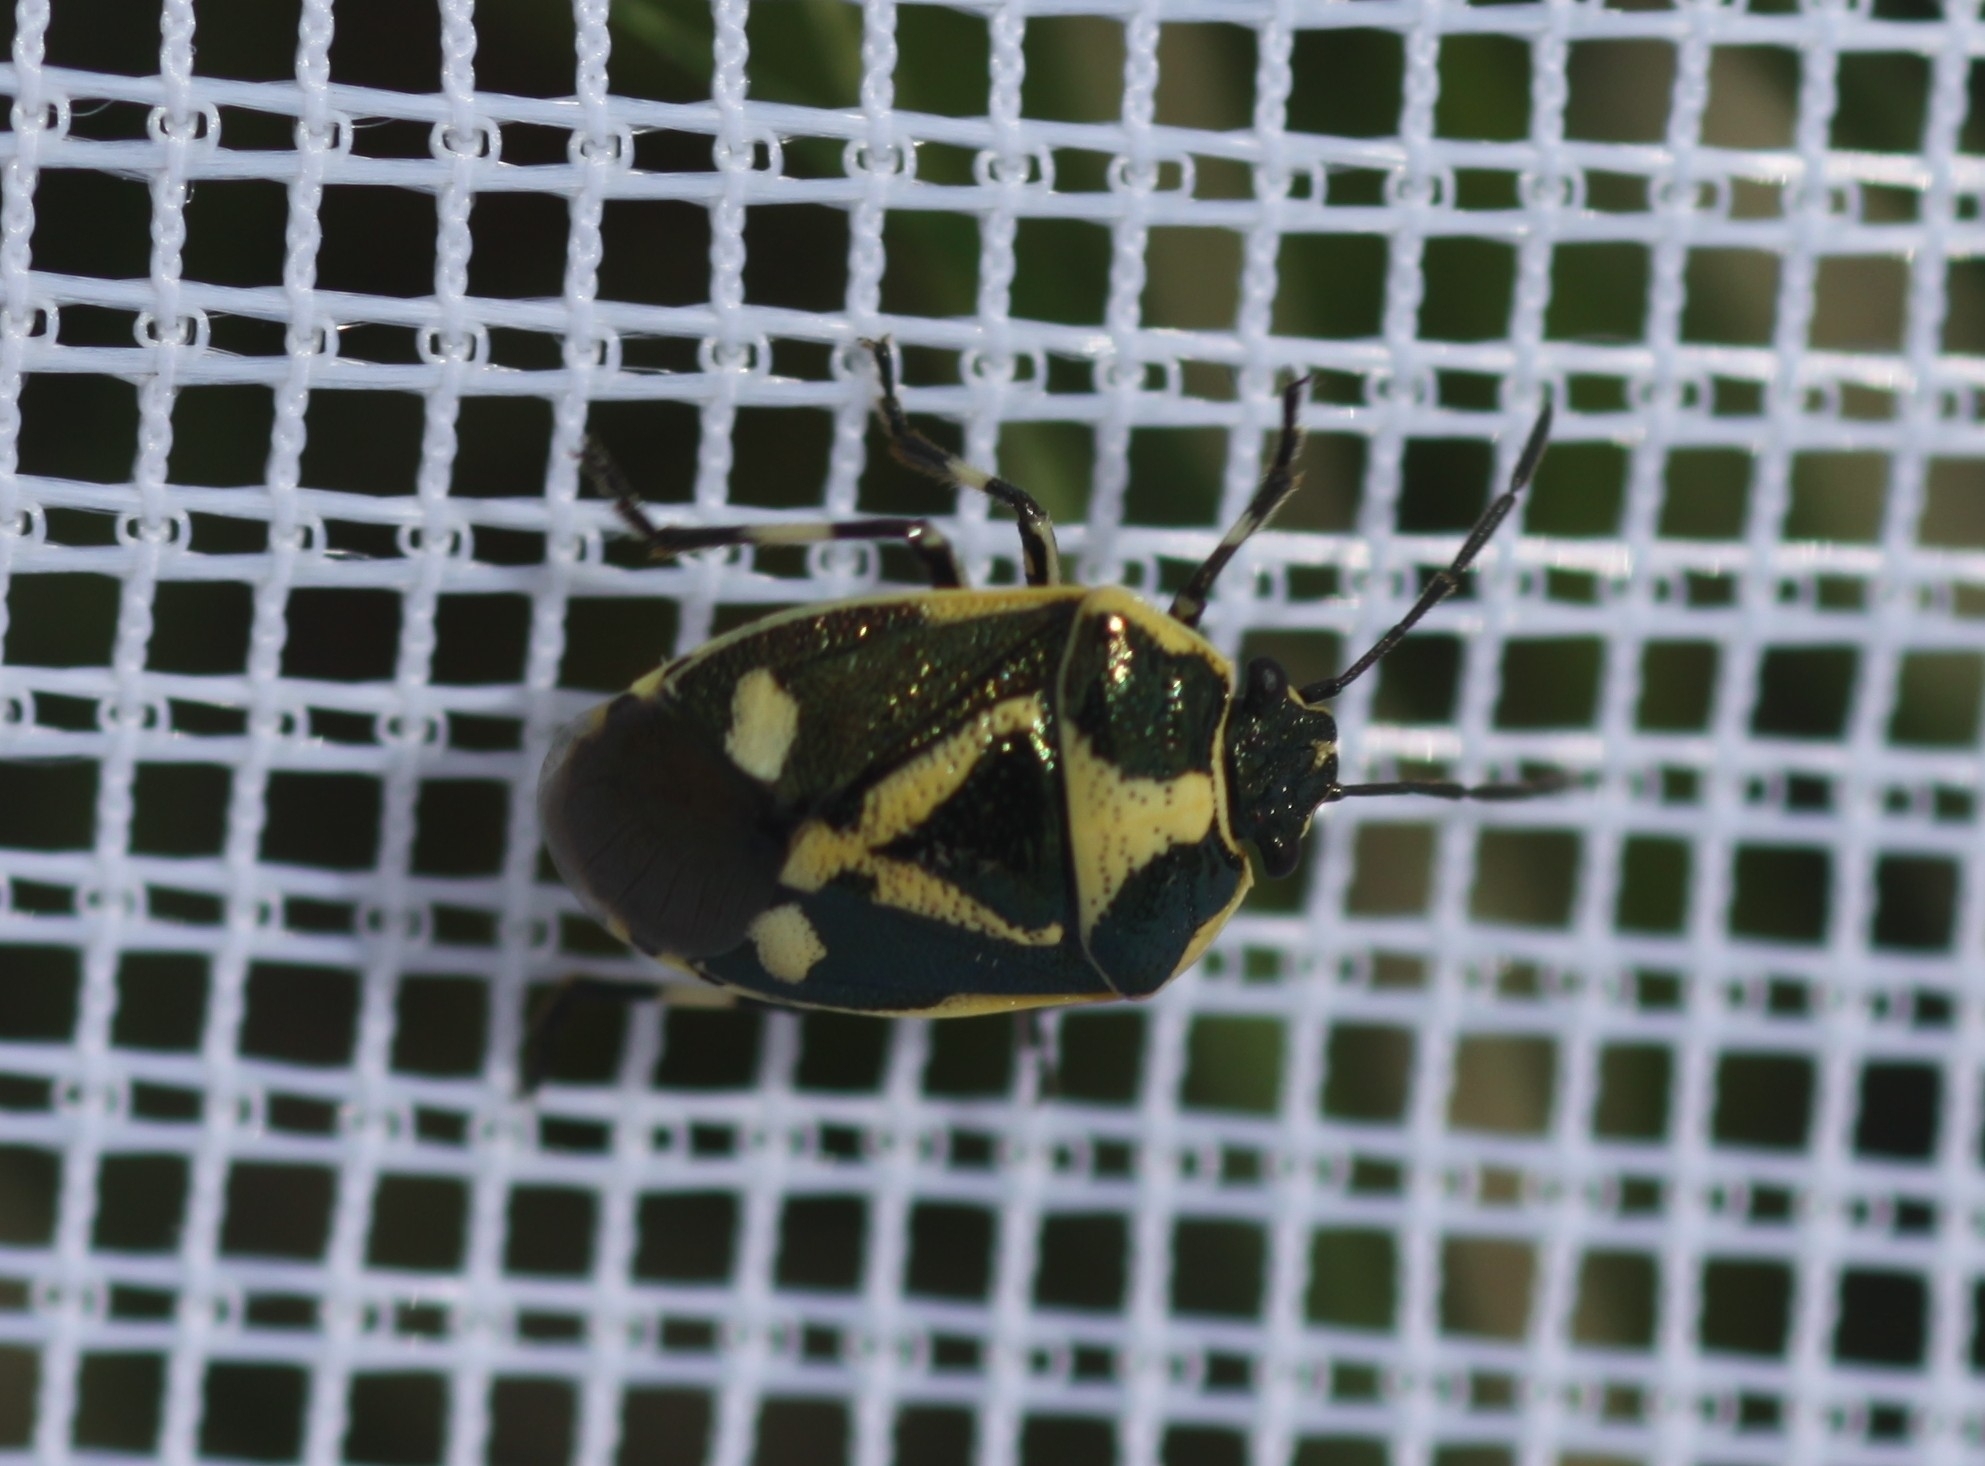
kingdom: Animalia
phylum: Arthropoda
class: Insecta
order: Hemiptera
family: Pentatomidae
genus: Eurydema
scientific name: Eurydema oleracea
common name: Cabbage bug
